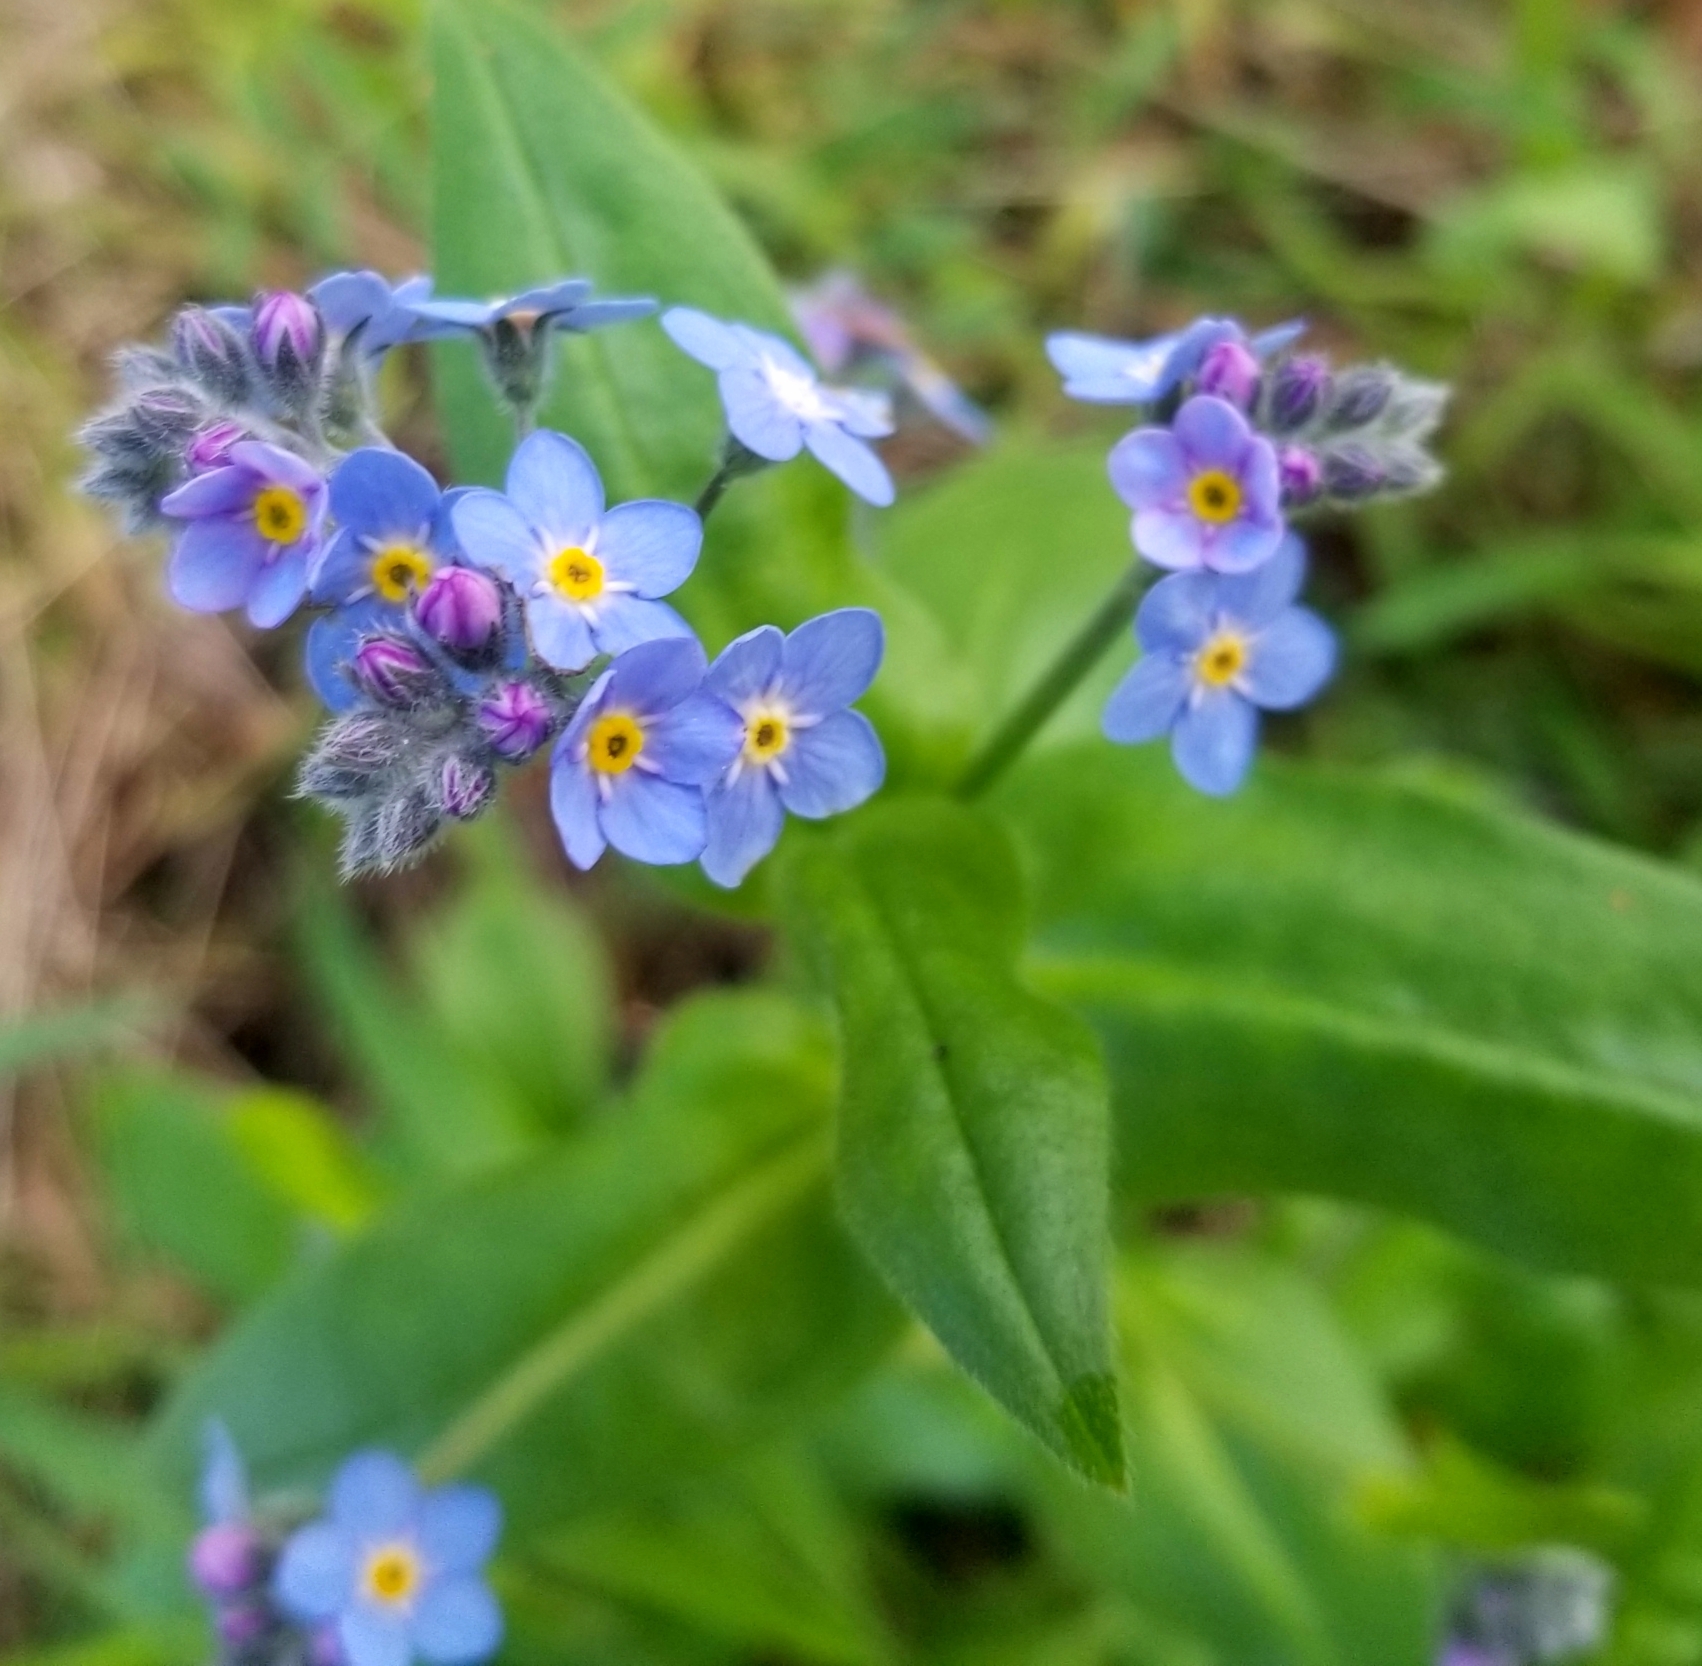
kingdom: Plantae
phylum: Tracheophyta
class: Magnoliopsida
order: Boraginales
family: Boraginaceae
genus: Myosotis
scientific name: Myosotis latifolia
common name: Broadleaf forget-me-not
